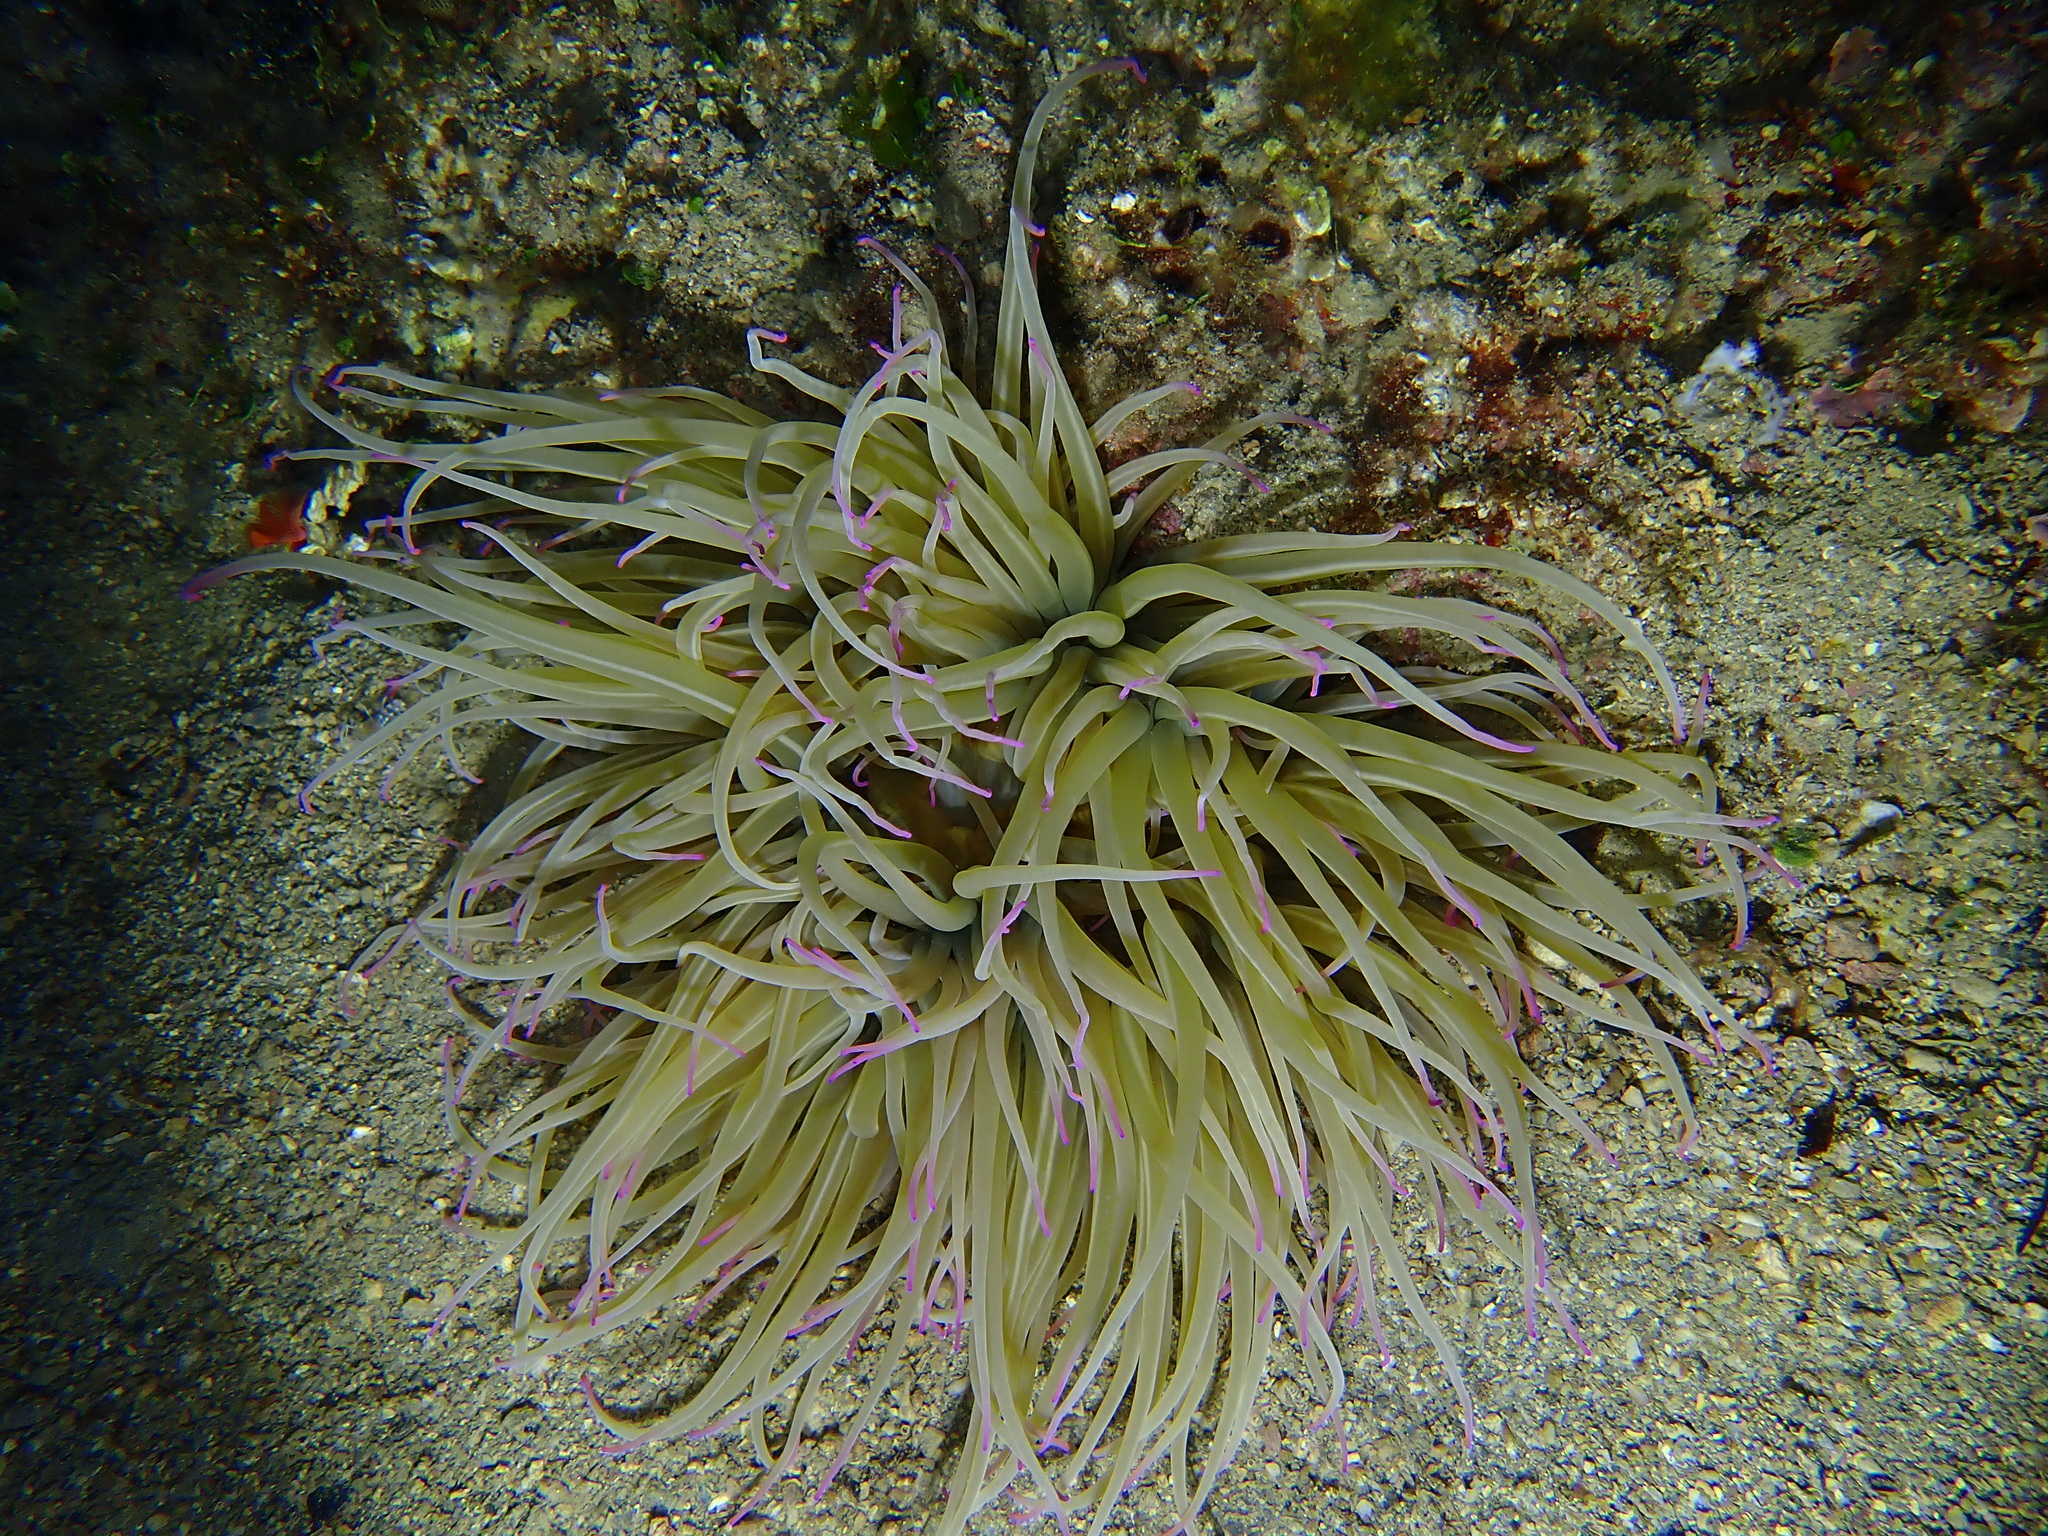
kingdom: Animalia
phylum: Cnidaria
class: Anthozoa
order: Actiniaria
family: Actiniidae
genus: Anemonia
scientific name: Anemonia viridis
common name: Snakelocks anemone
